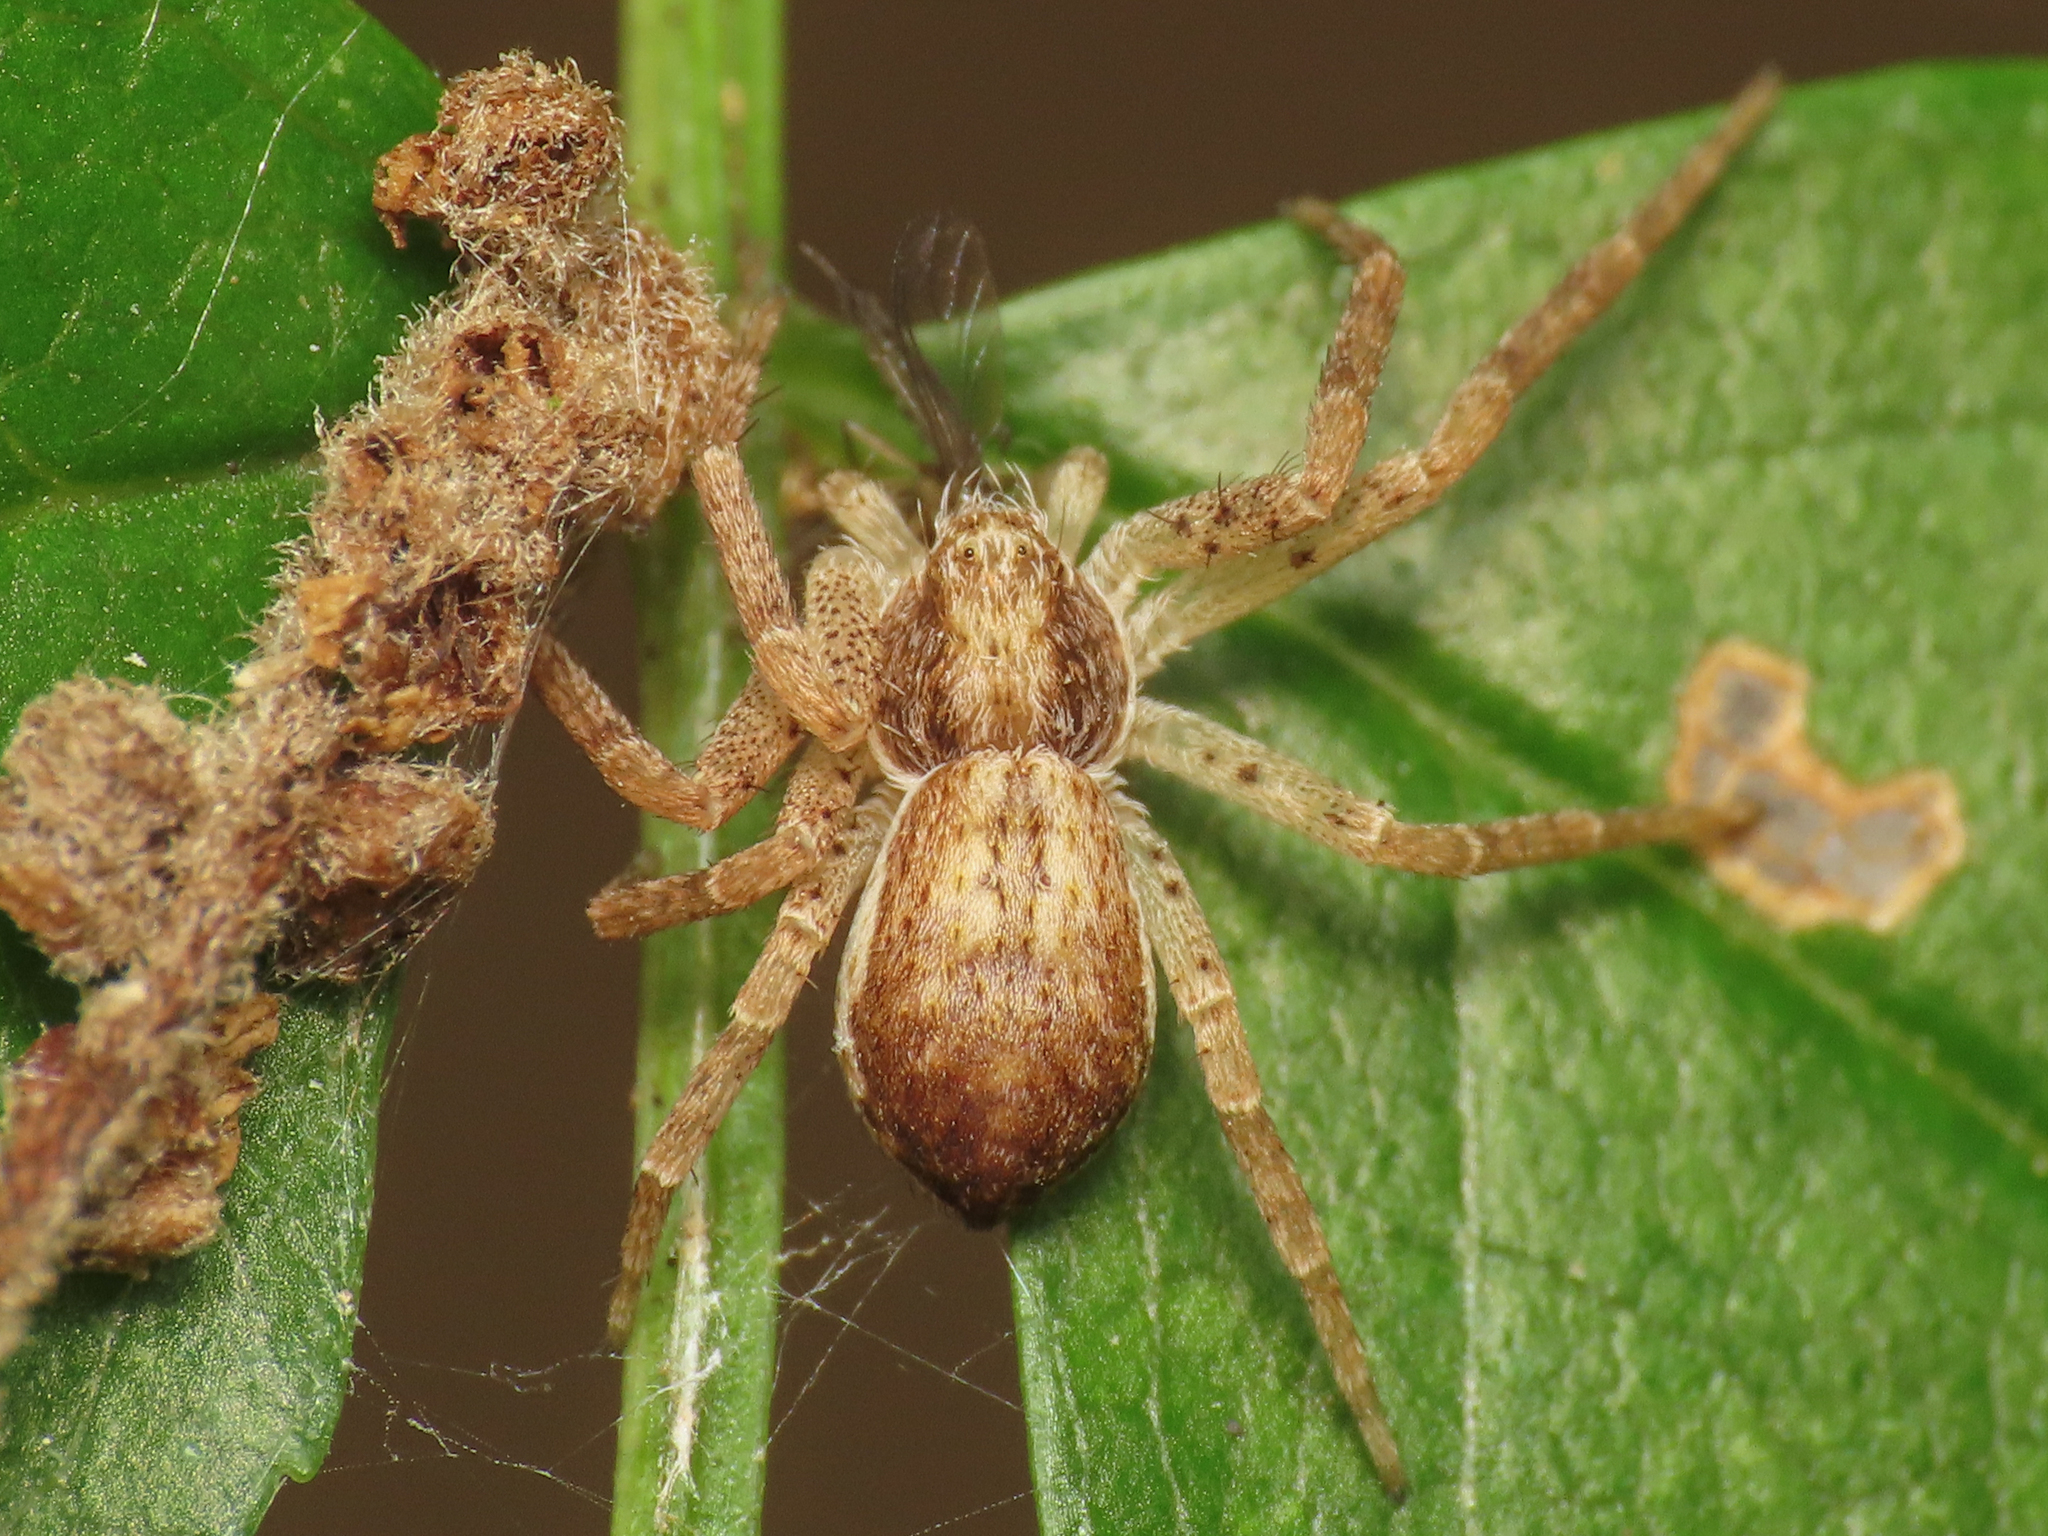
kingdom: Animalia
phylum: Arthropoda
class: Arachnida
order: Araneae
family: Philodromidae
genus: Philodromus
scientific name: Philodromus dispar
